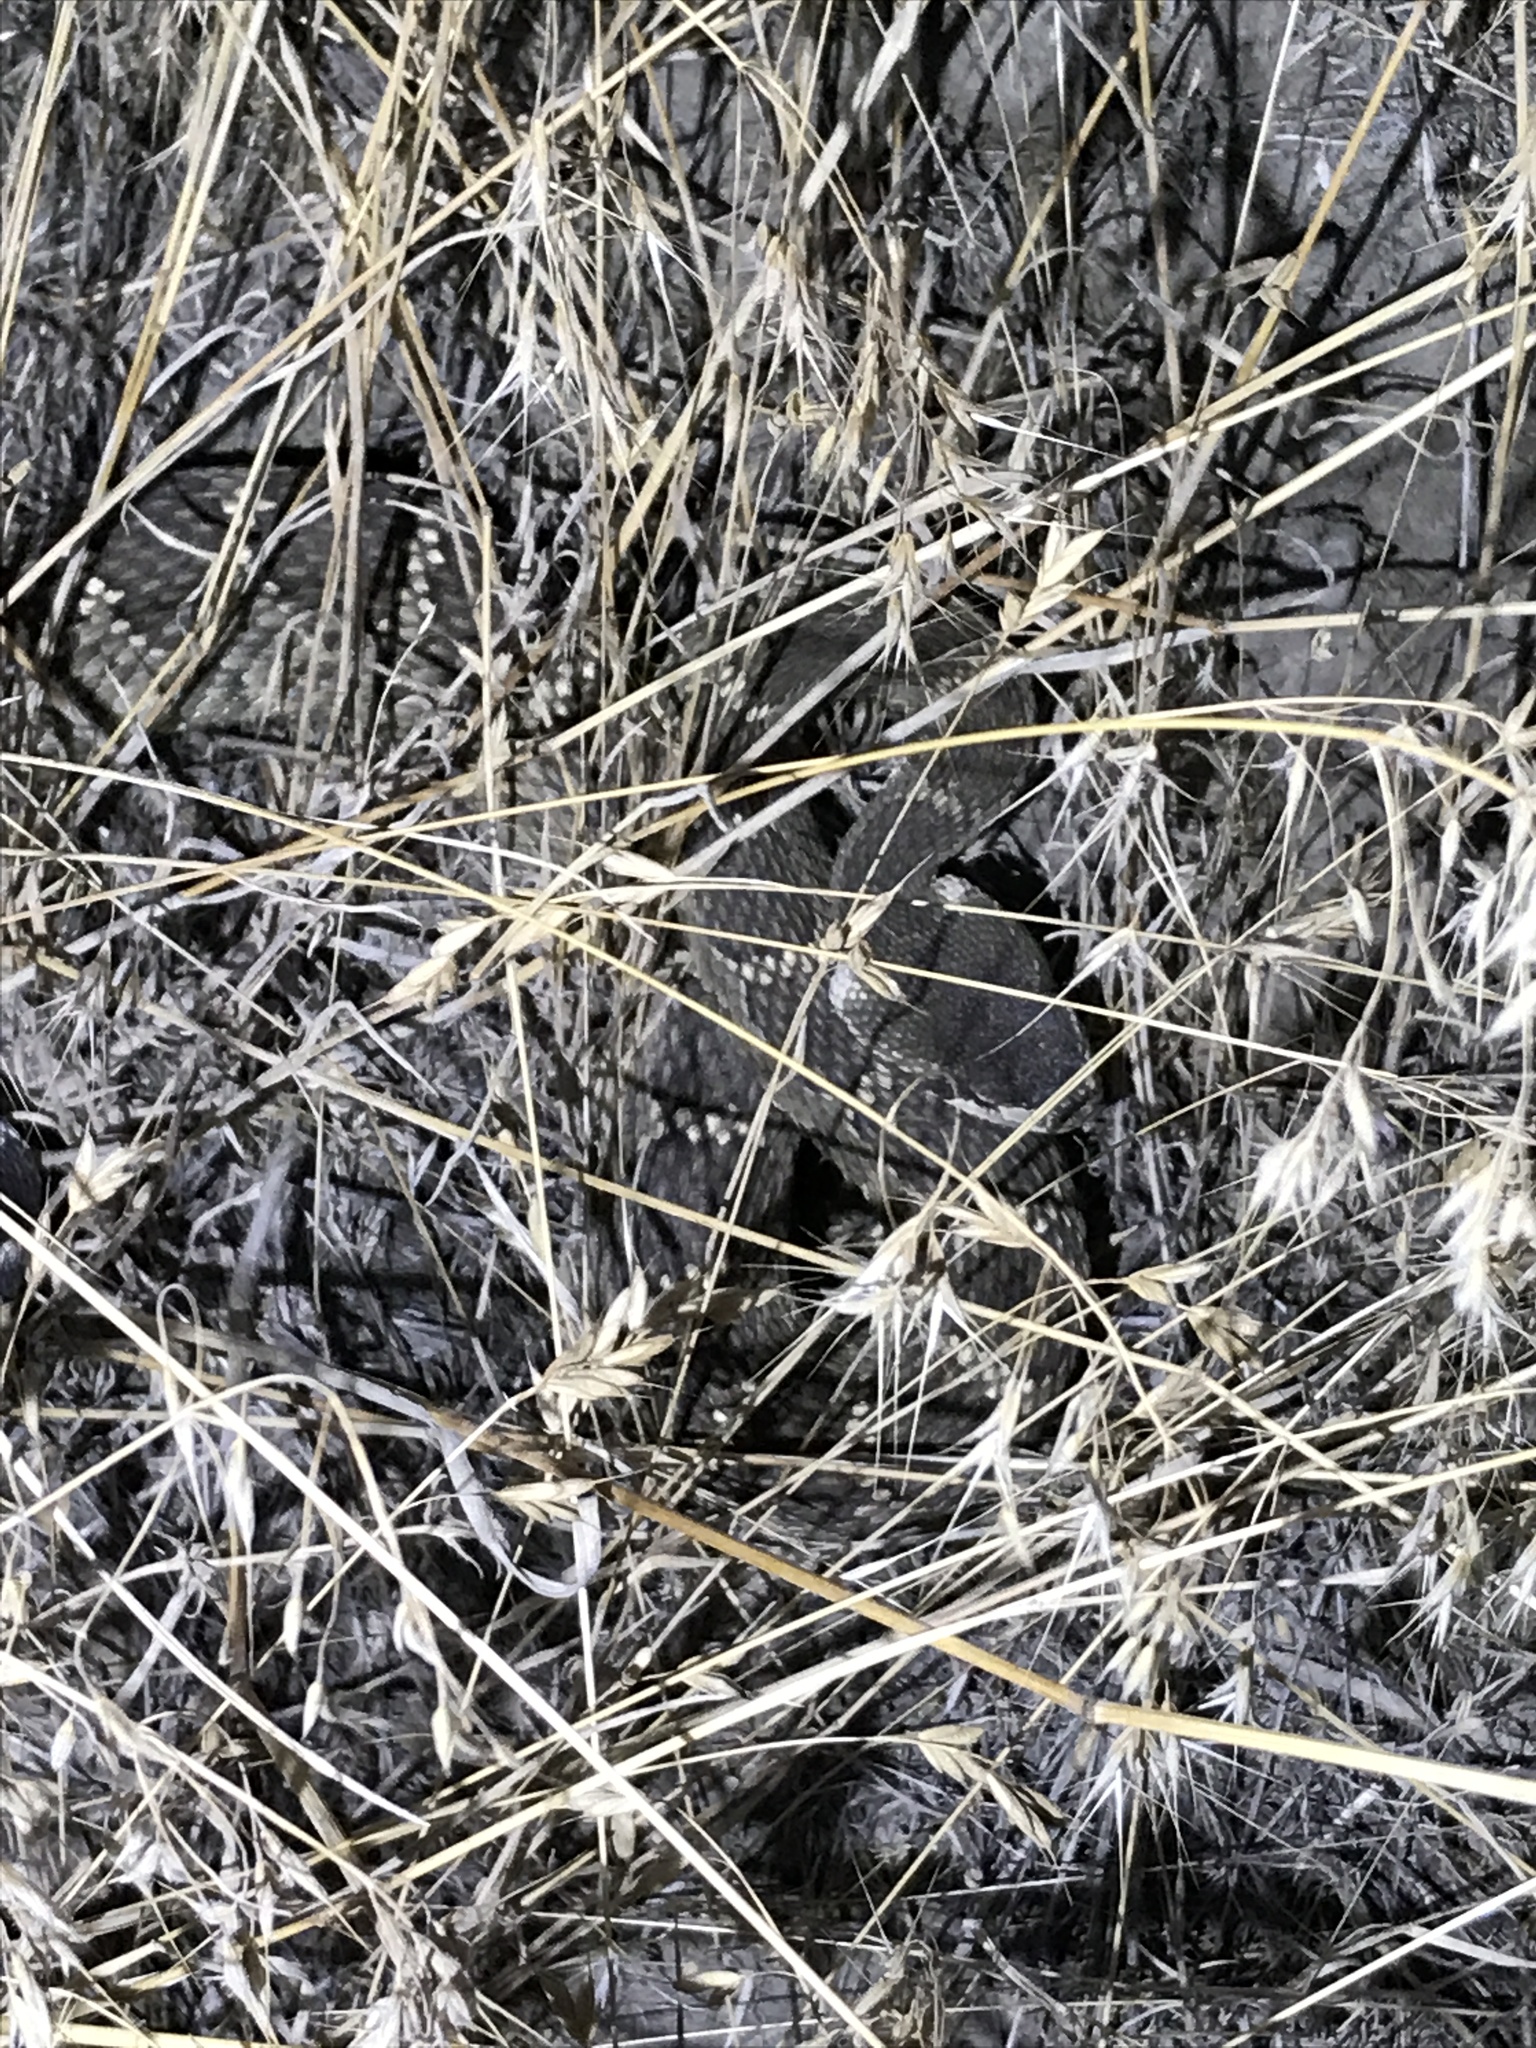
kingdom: Animalia
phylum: Chordata
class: Squamata
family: Viperidae
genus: Crotalus
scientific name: Crotalus oreganus
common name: Abyssus
